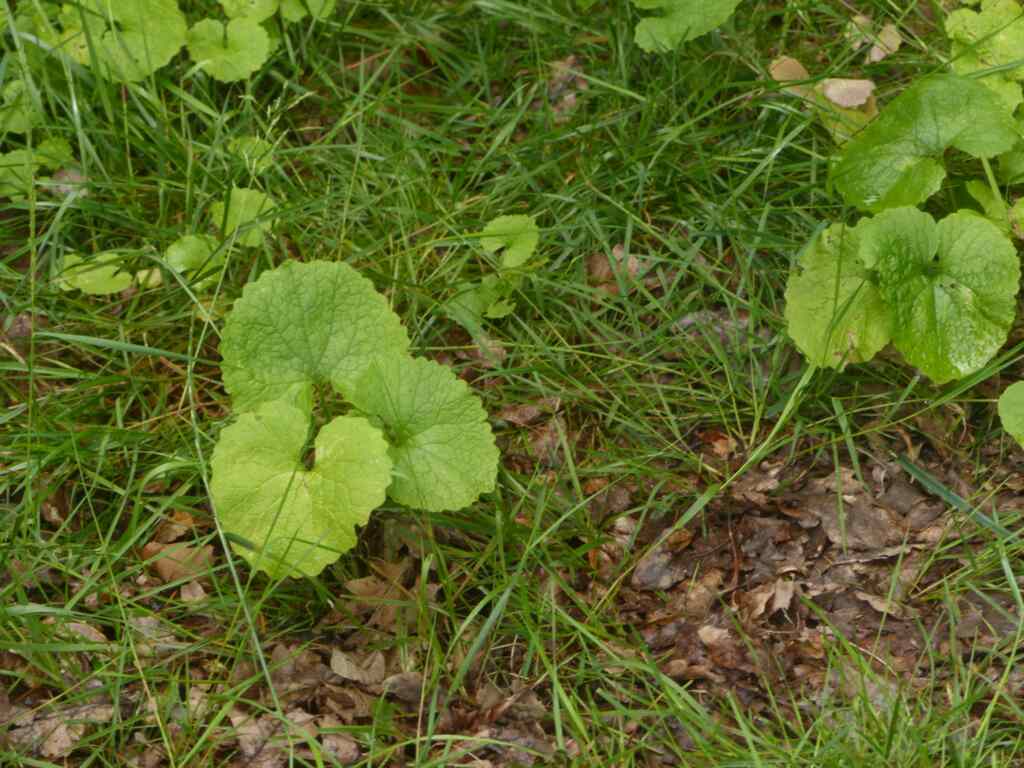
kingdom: Plantae
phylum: Tracheophyta
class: Magnoliopsida
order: Brassicales
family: Brassicaceae
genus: Alliaria
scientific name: Alliaria petiolata
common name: Garlic mustard
